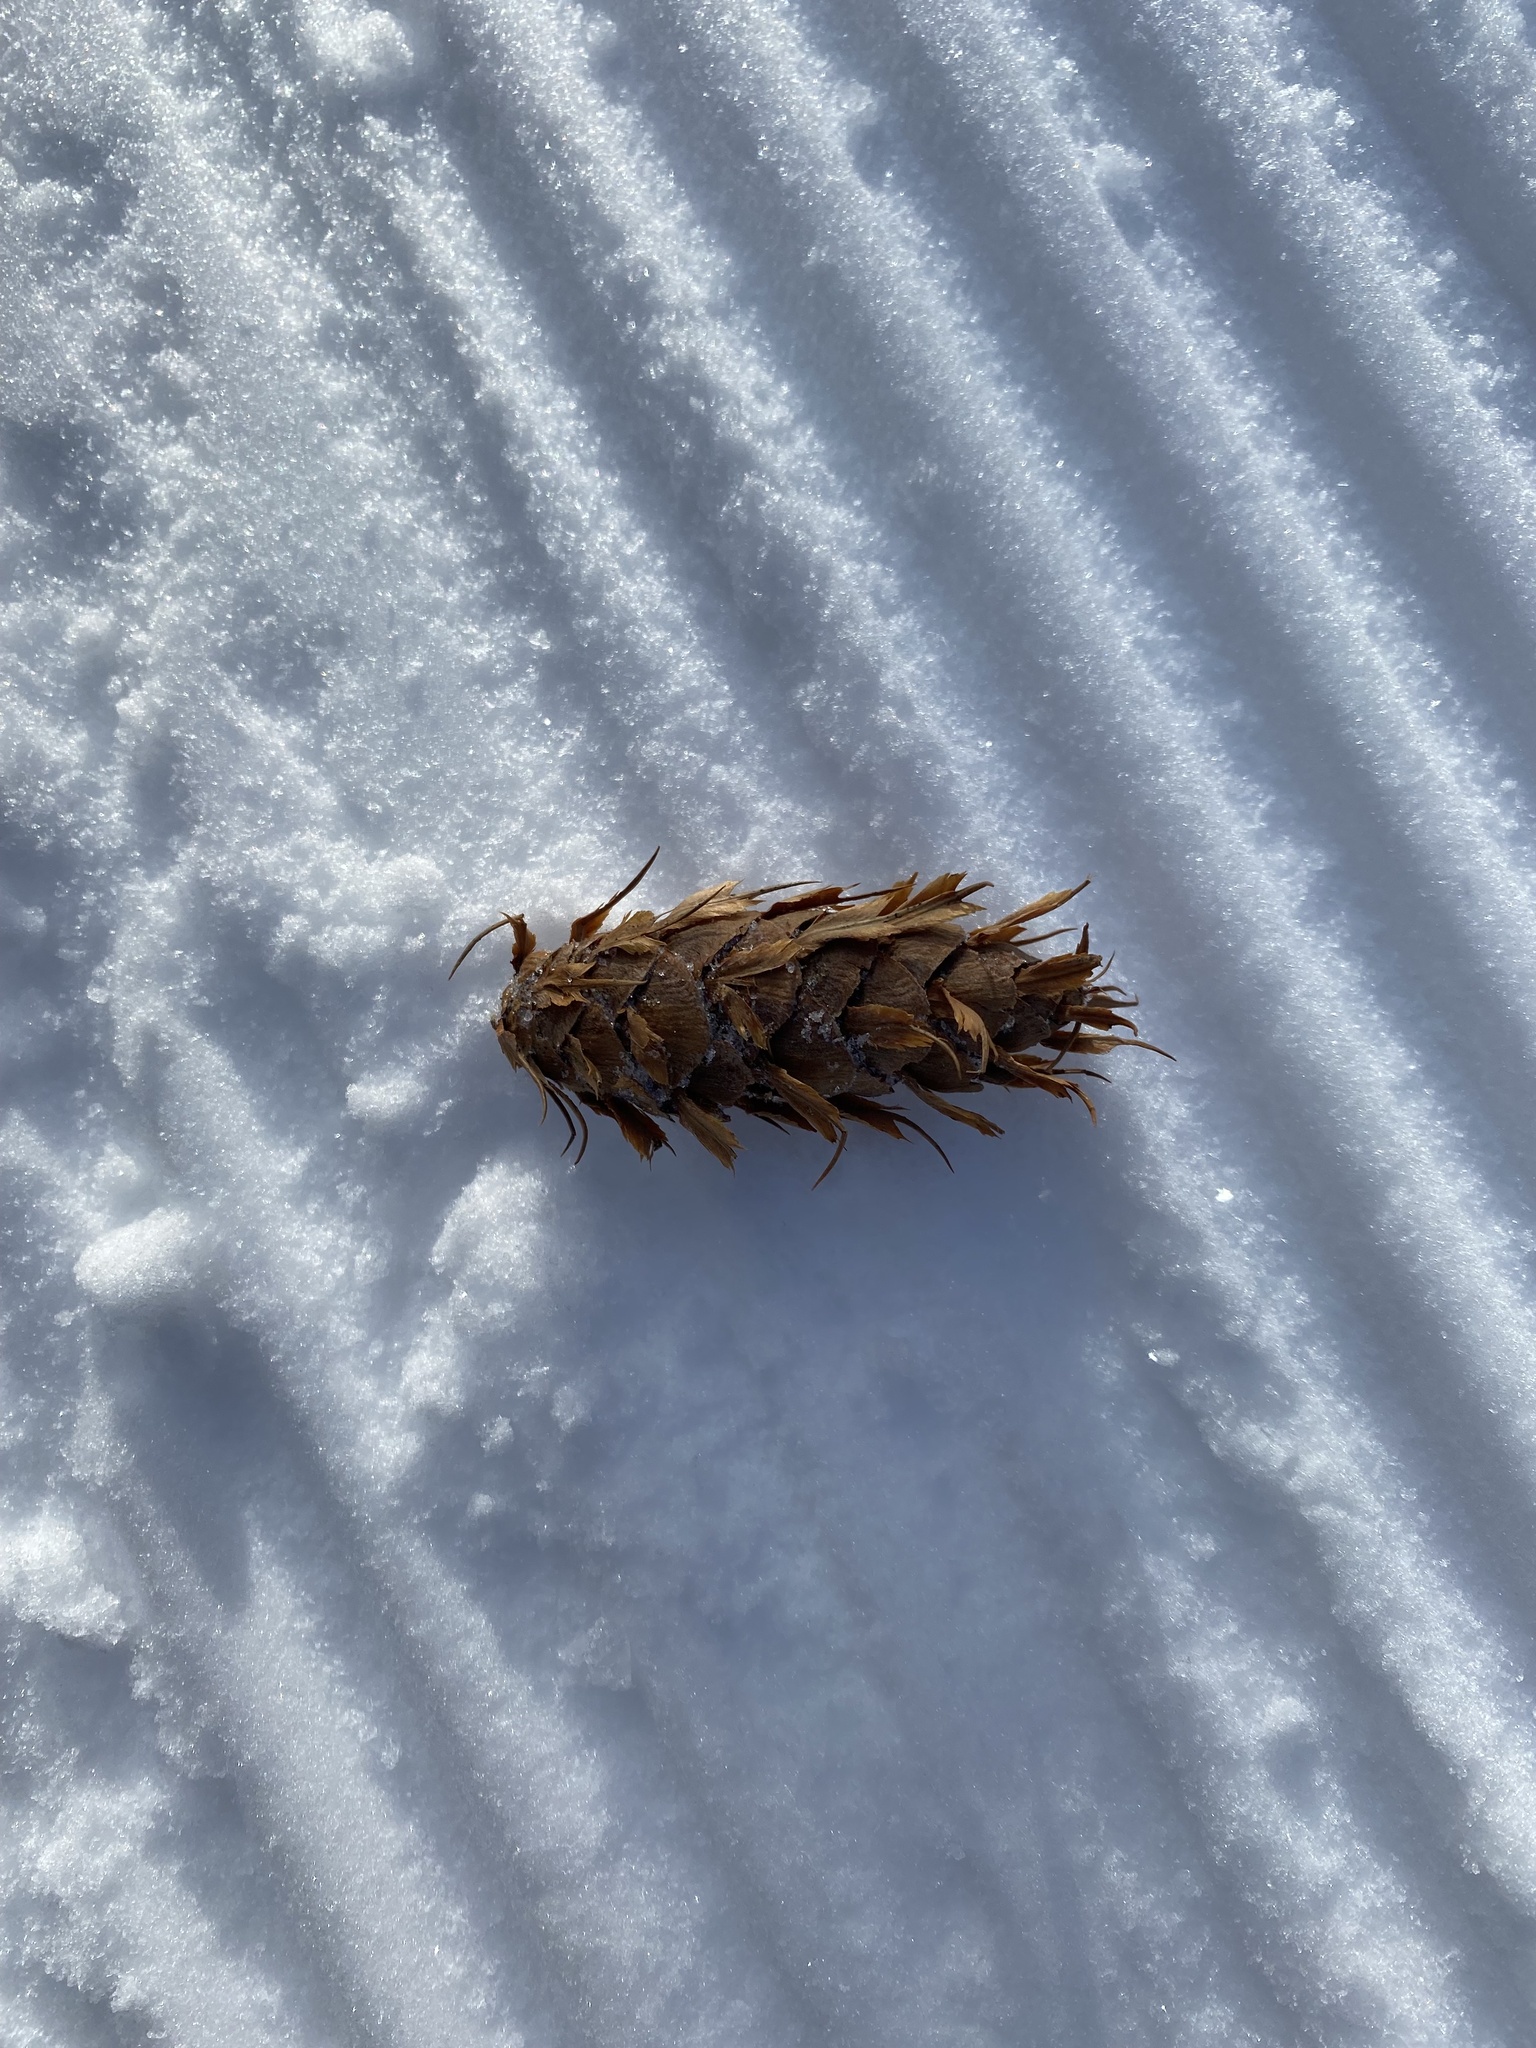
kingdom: Plantae
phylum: Tracheophyta
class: Pinopsida
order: Pinales
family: Pinaceae
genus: Pseudotsuga
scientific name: Pseudotsuga menziesii
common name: Douglas fir
